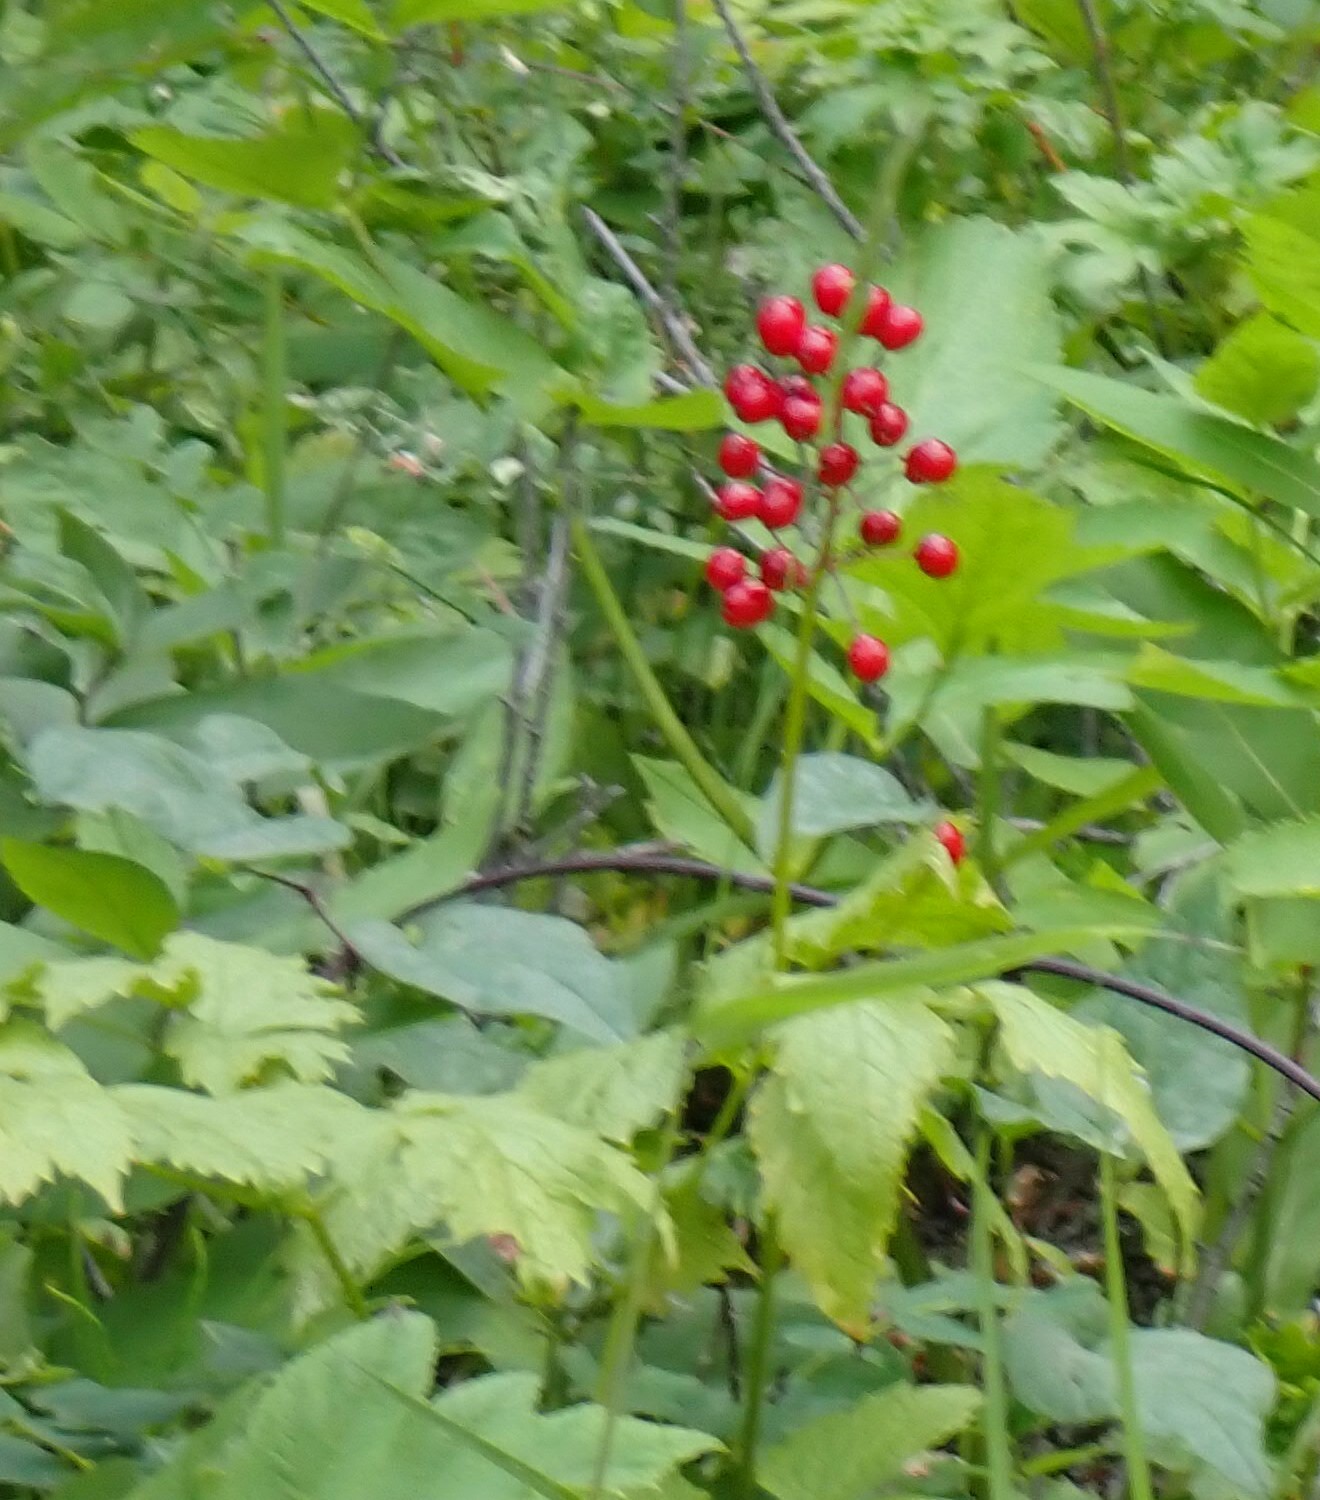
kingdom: Plantae
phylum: Tracheophyta
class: Magnoliopsida
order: Ranunculales
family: Ranunculaceae
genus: Actaea
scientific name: Actaea rubra
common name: Red baneberry
